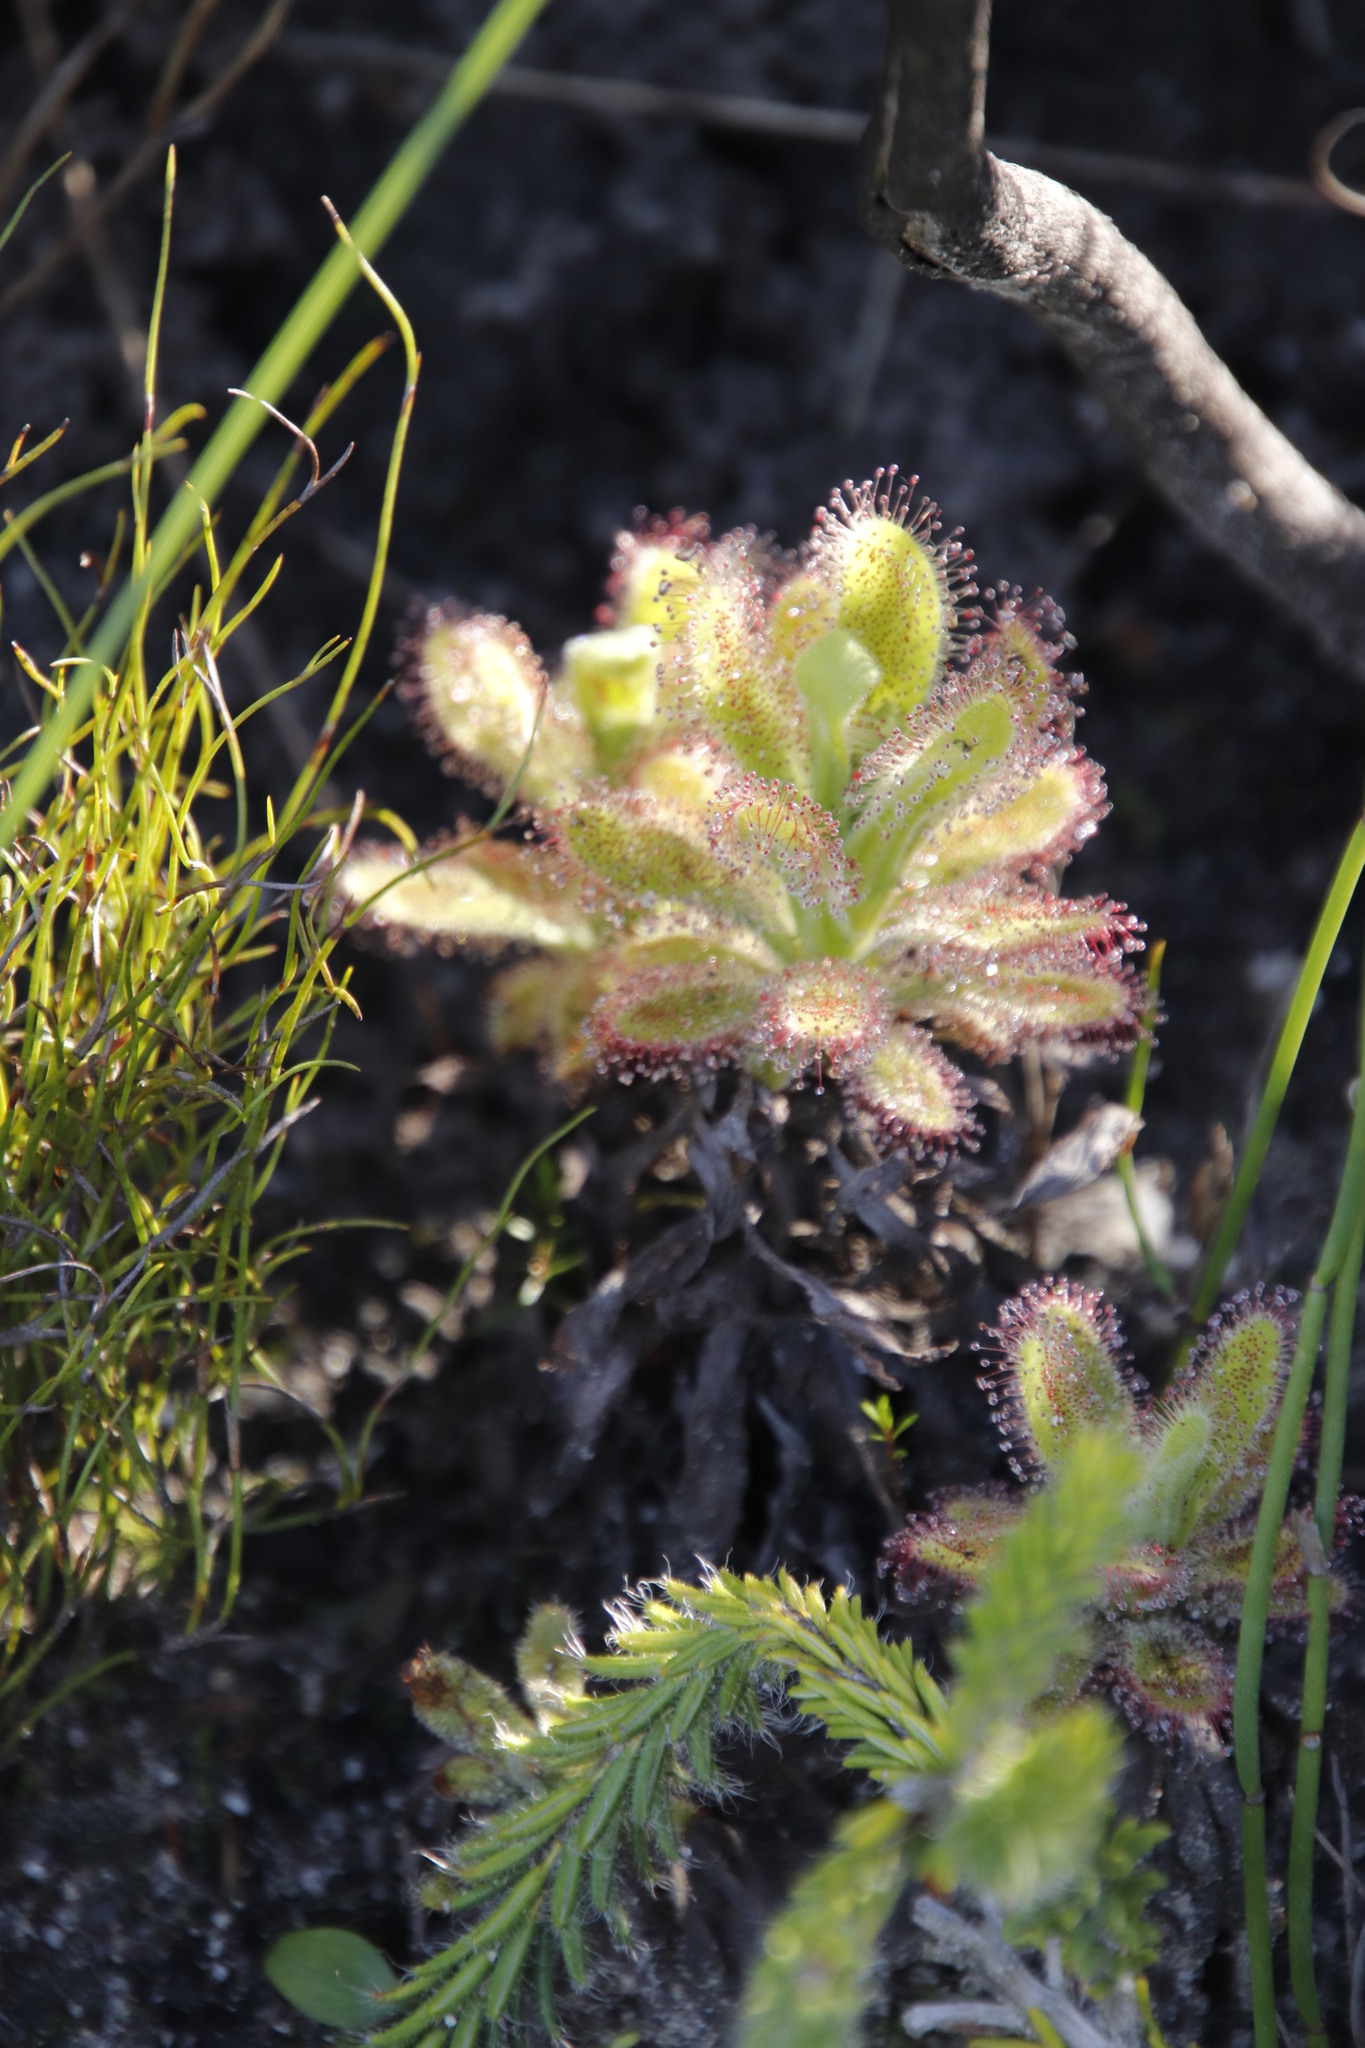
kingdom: Plantae
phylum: Tracheophyta
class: Magnoliopsida
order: Caryophyllales
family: Droseraceae
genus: Drosera
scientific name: Drosera hilaris
